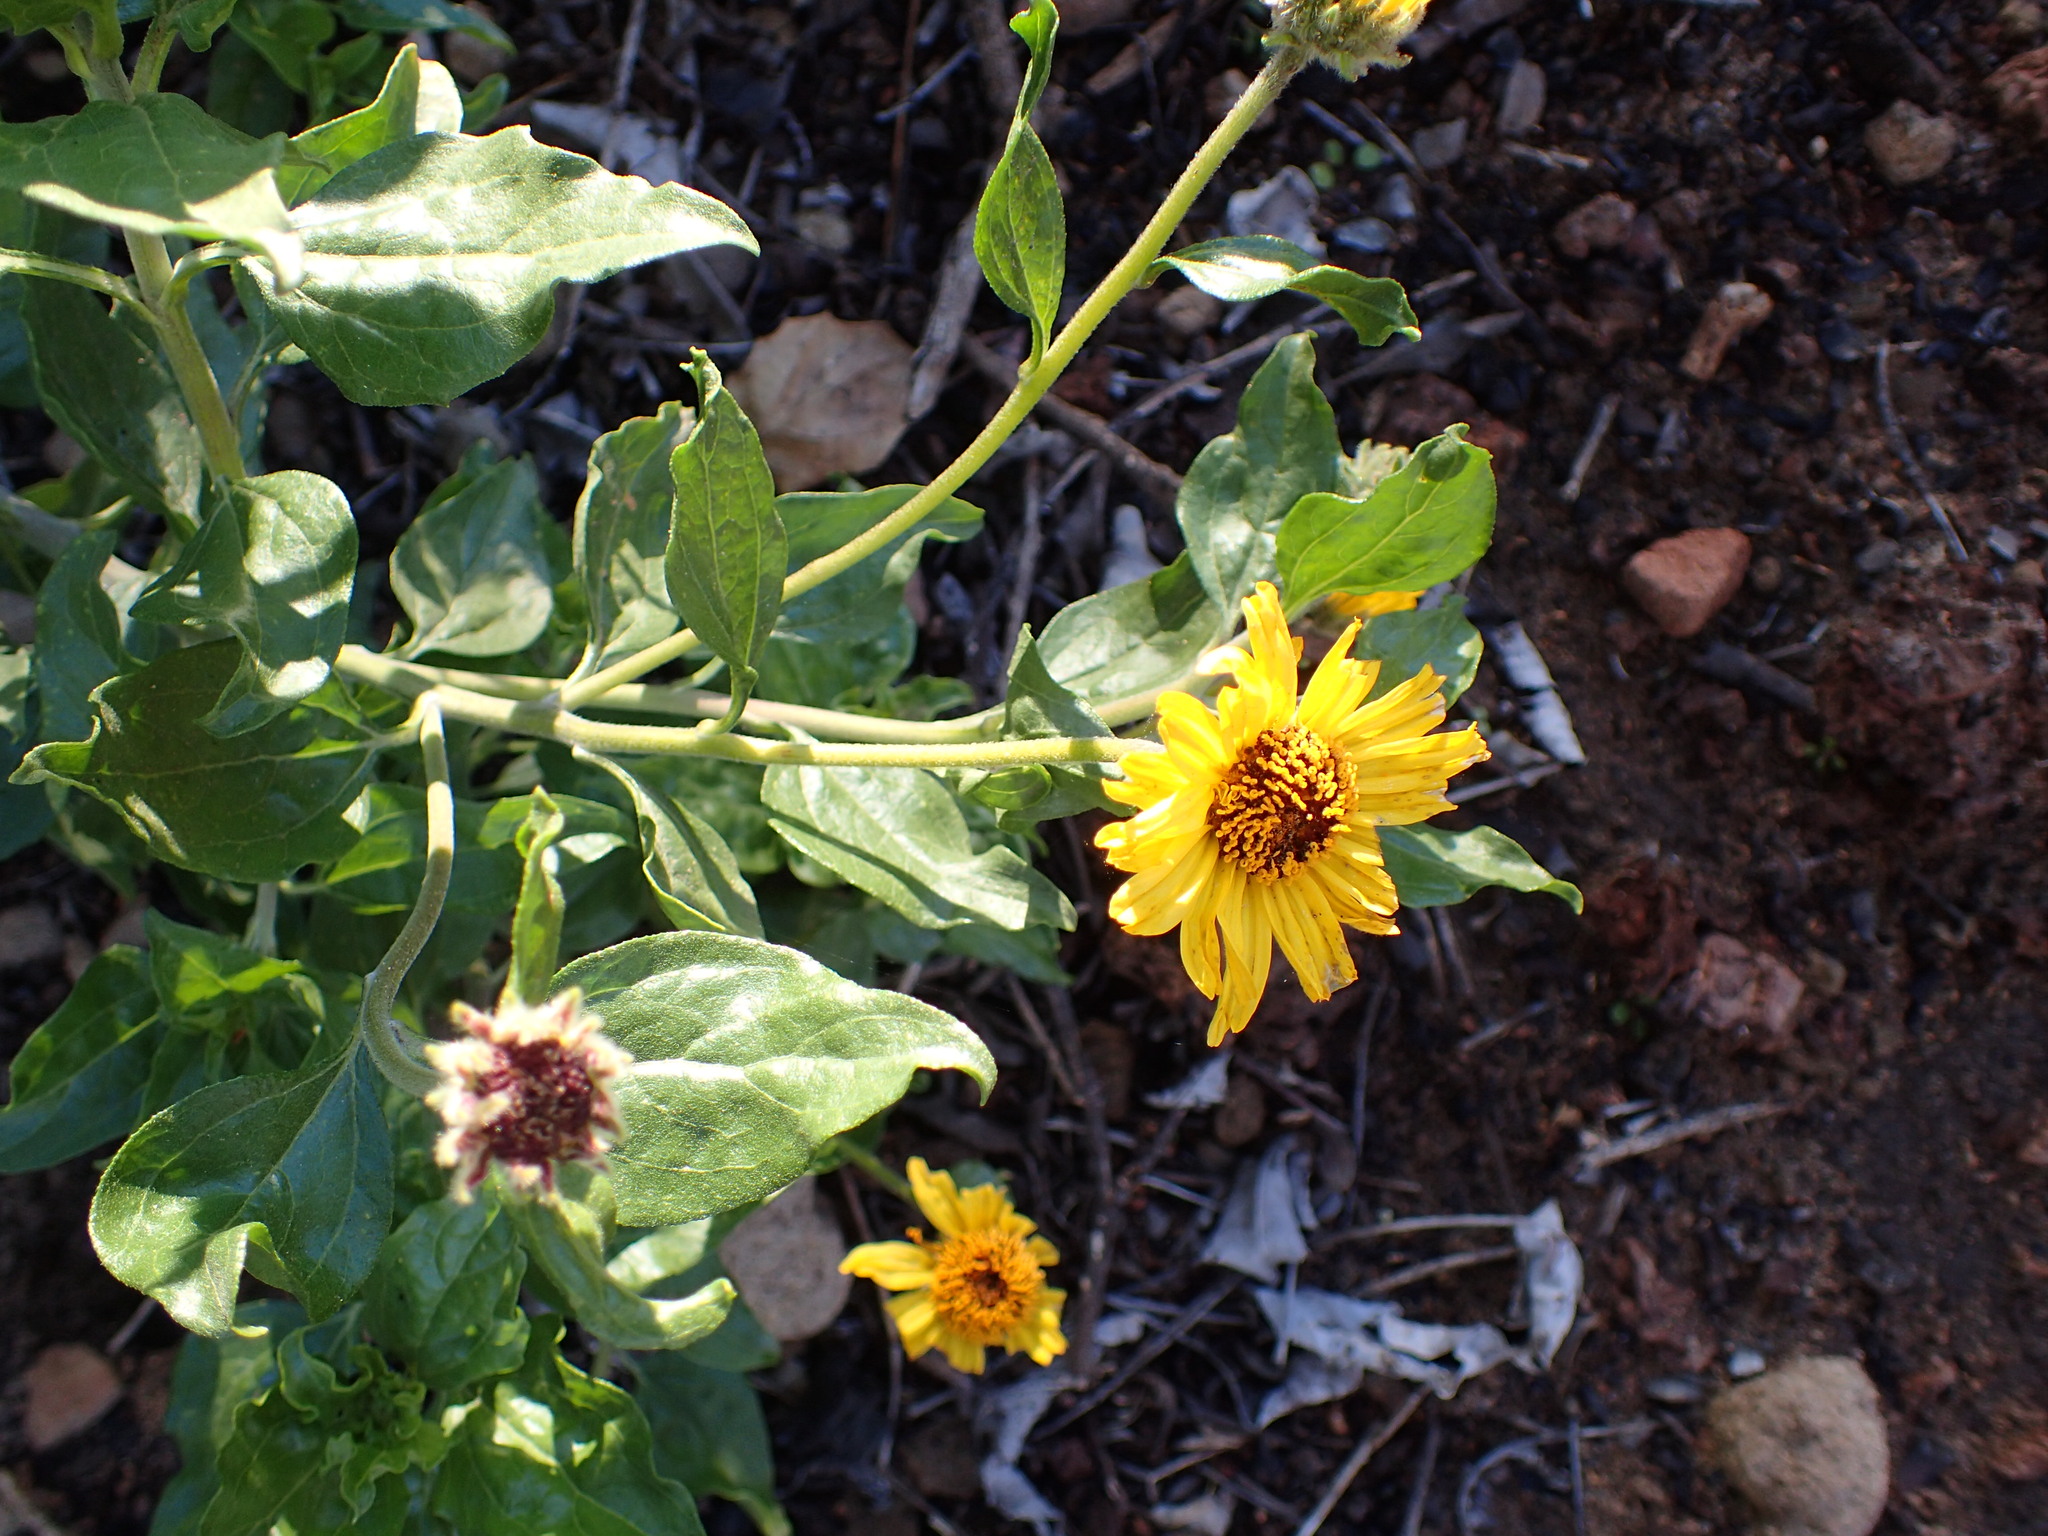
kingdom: Plantae
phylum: Tracheophyta
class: Magnoliopsida
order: Asterales
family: Asteraceae
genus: Encelia
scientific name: Encelia californica
